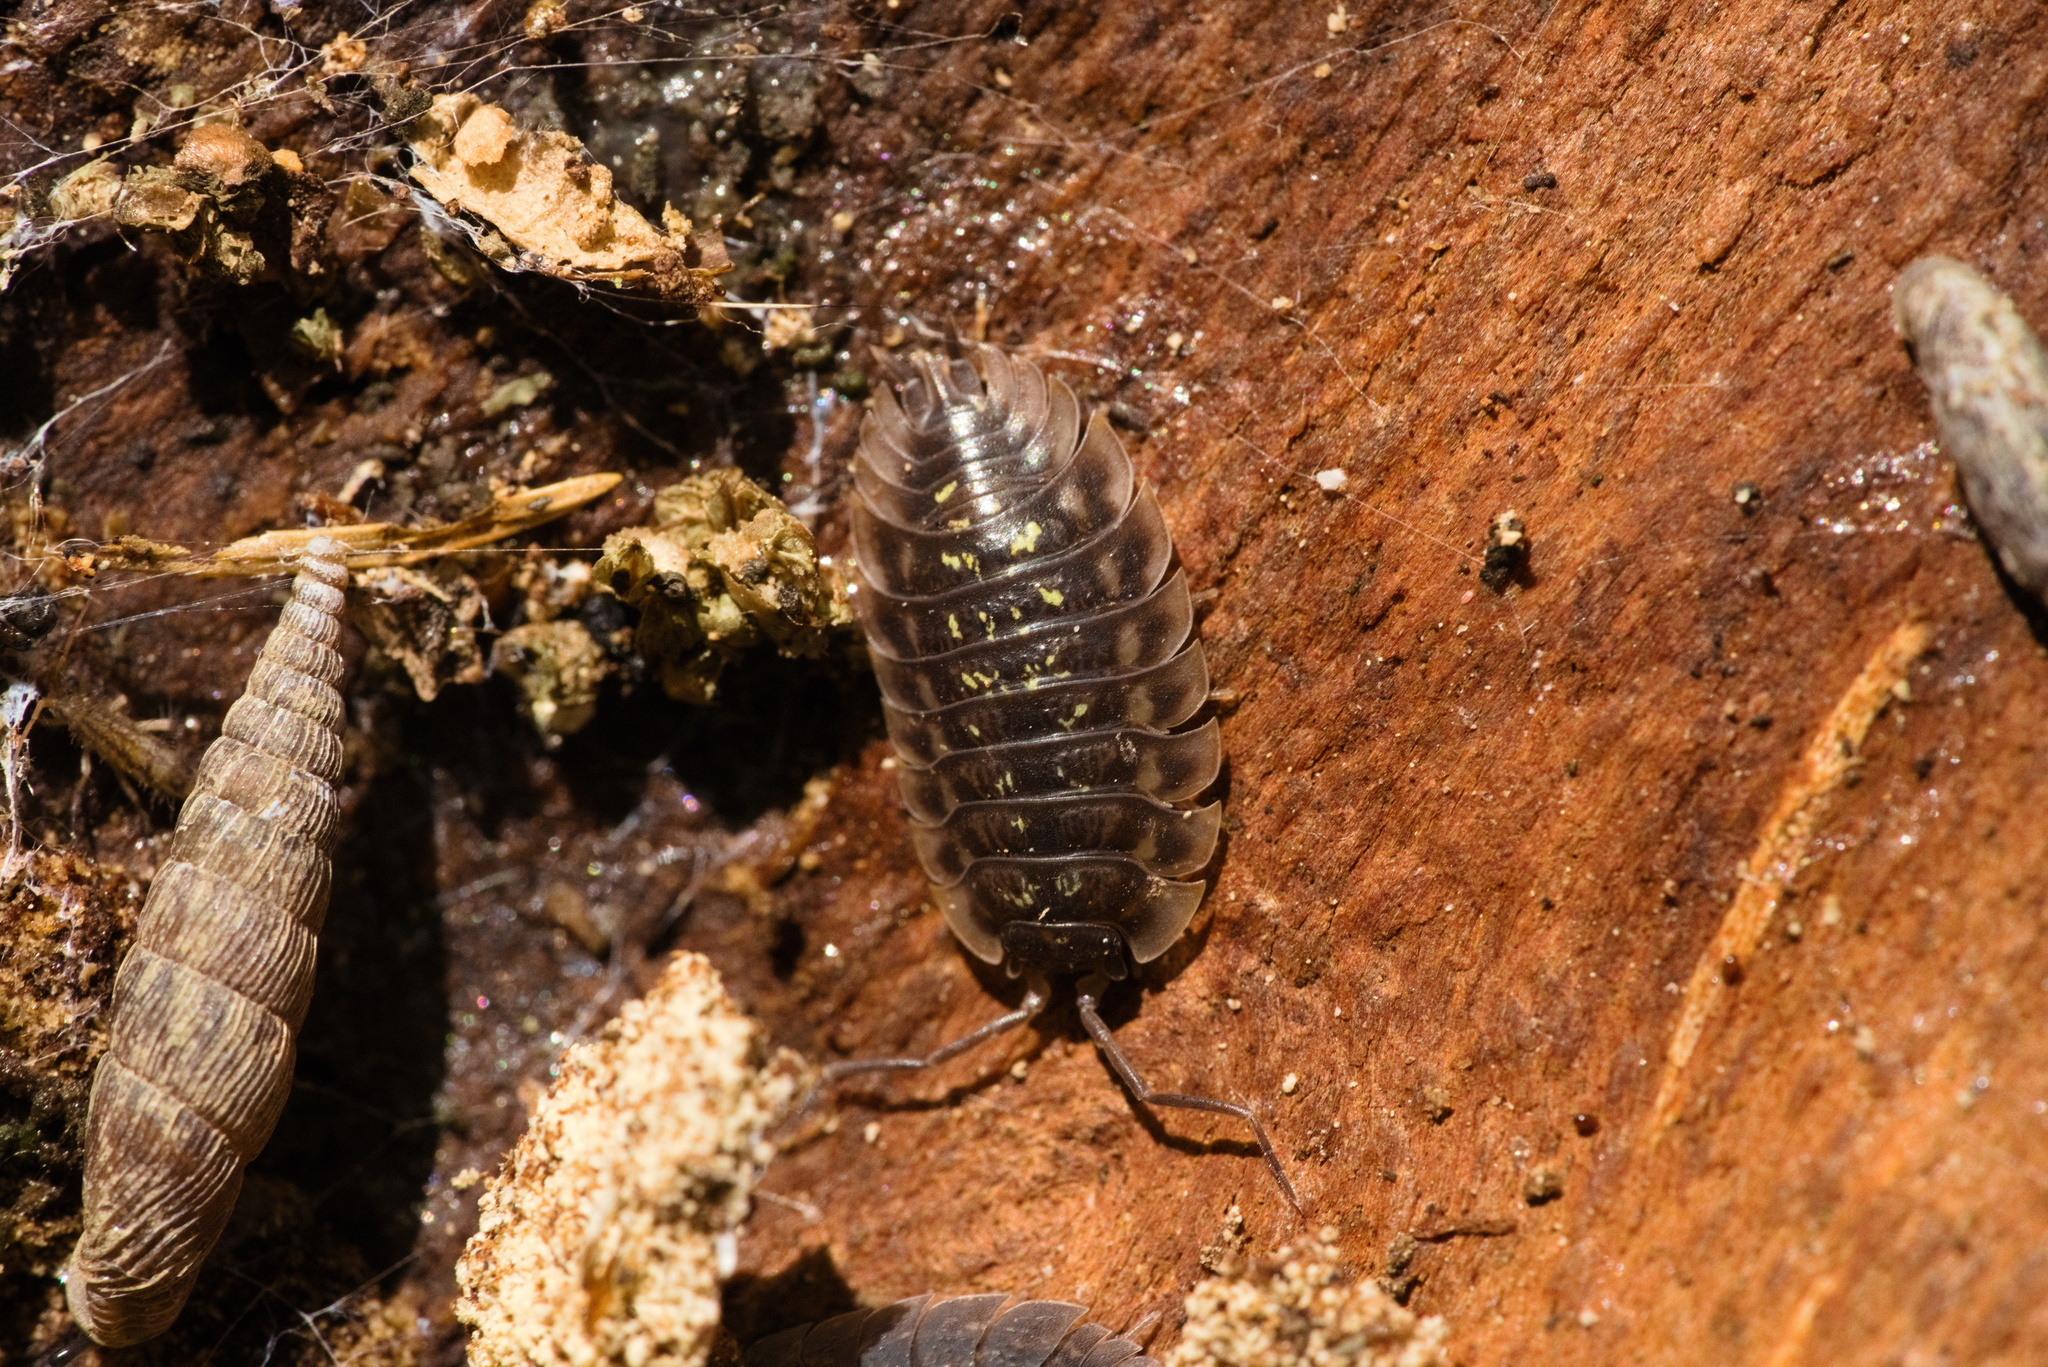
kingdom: Animalia
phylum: Arthropoda
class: Malacostraca
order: Isopoda
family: Oniscidae
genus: Oniscus
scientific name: Oniscus asellus
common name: Common shiny woodlouse
